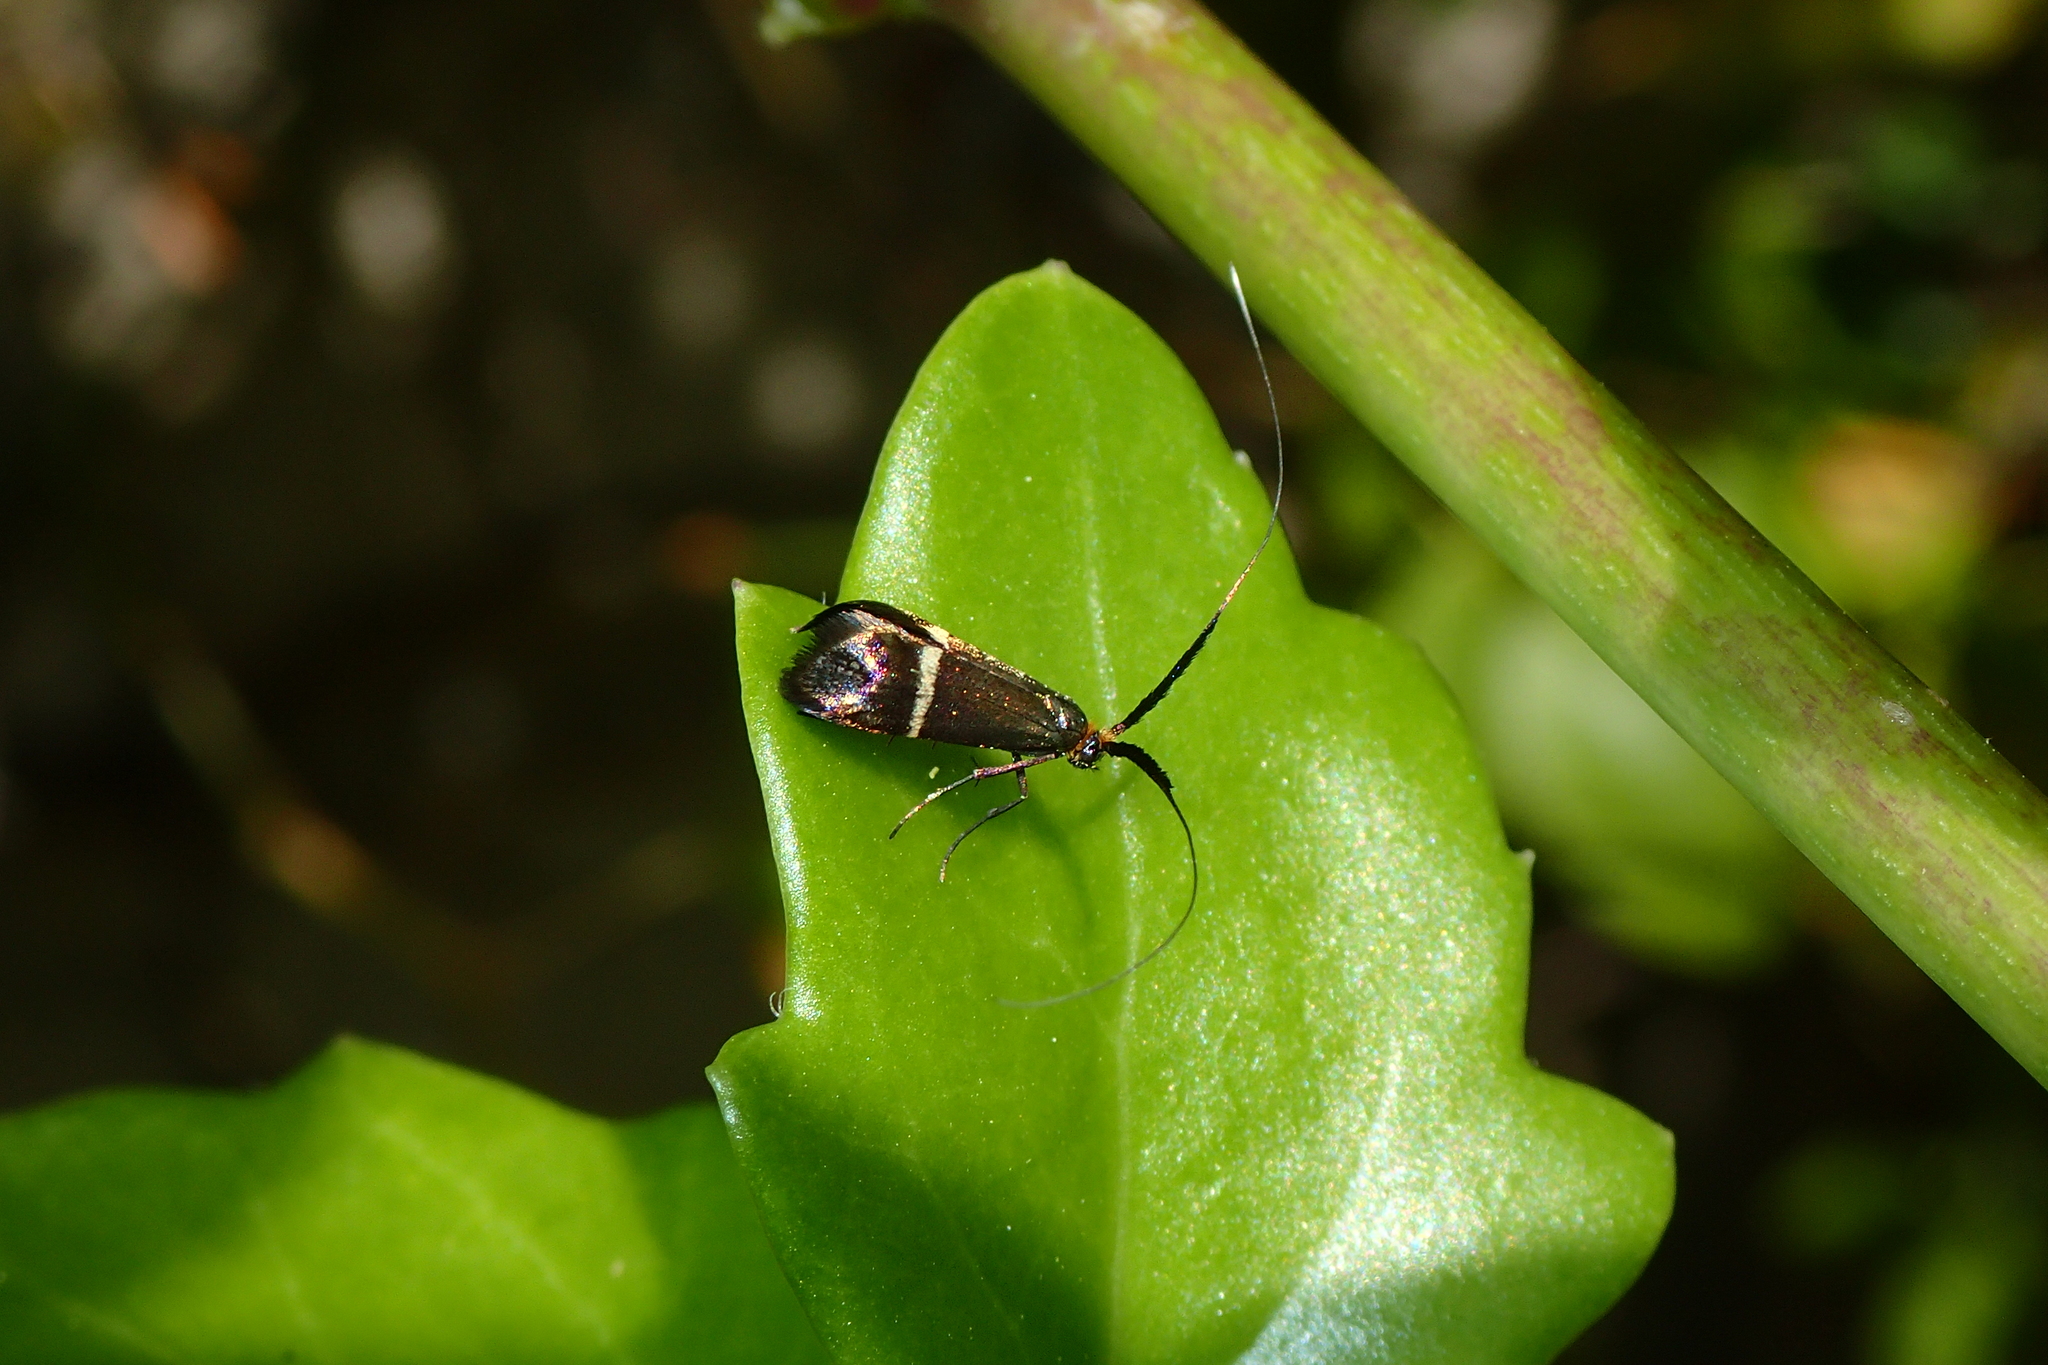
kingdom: Animalia
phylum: Arthropoda
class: Insecta
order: Lepidoptera
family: Adelidae
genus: Adela
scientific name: Adela australis
